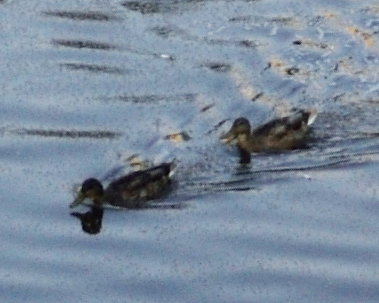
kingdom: Animalia
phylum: Chordata
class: Aves
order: Anseriformes
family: Anatidae
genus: Anas
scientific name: Anas platyrhynchos
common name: Mallard
